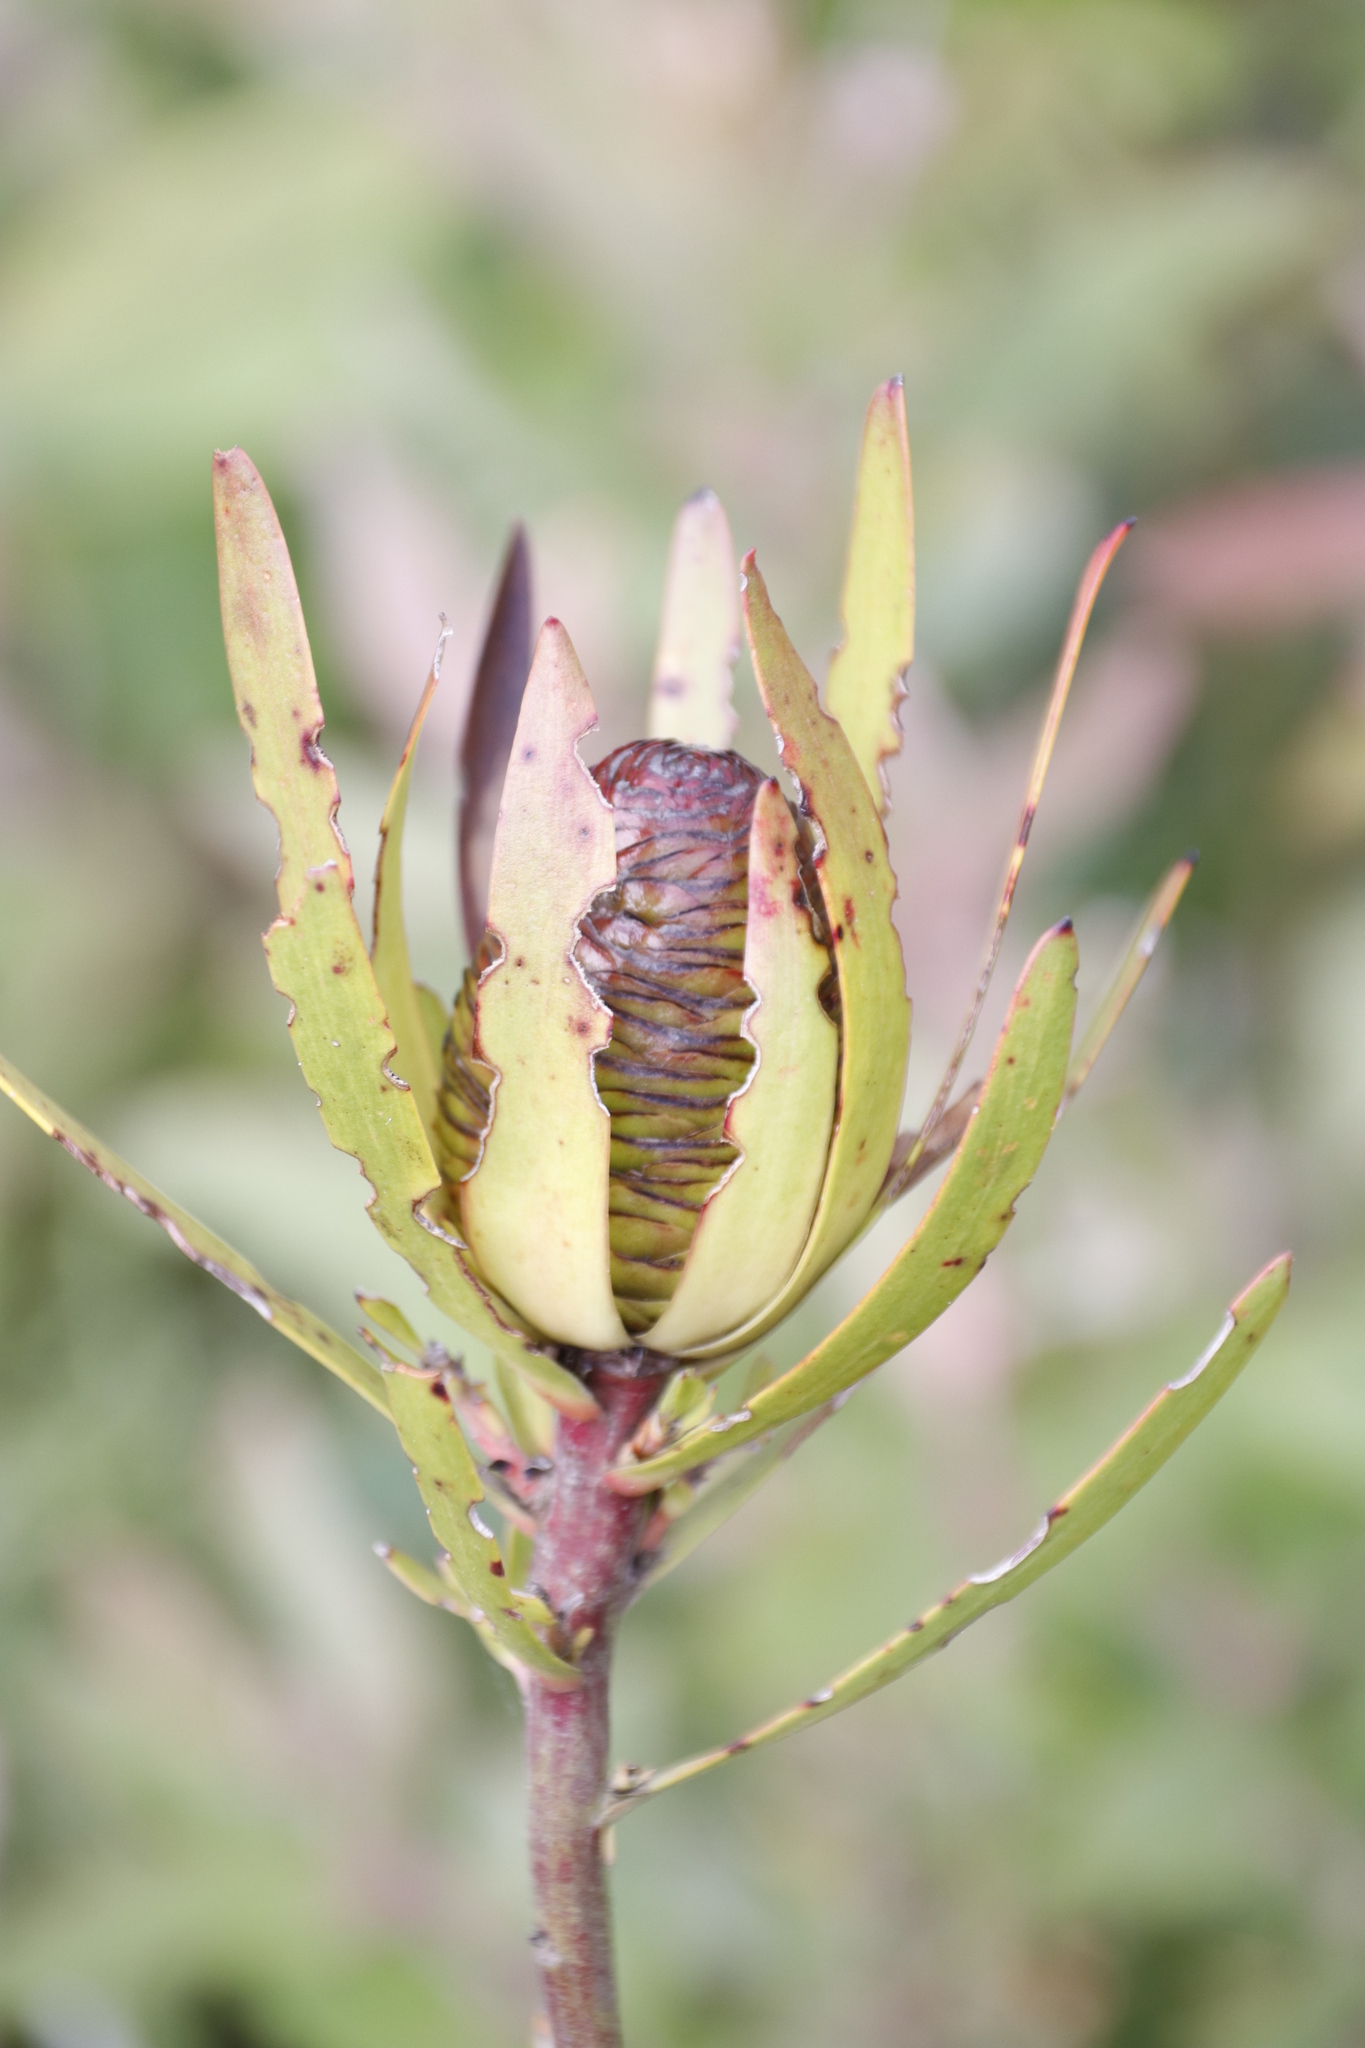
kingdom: Plantae
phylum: Tracheophyta
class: Magnoliopsida
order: Proteales
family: Proteaceae
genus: Leucadendron
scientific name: Leucadendron spissifolium
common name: Spear-leaf conebush
